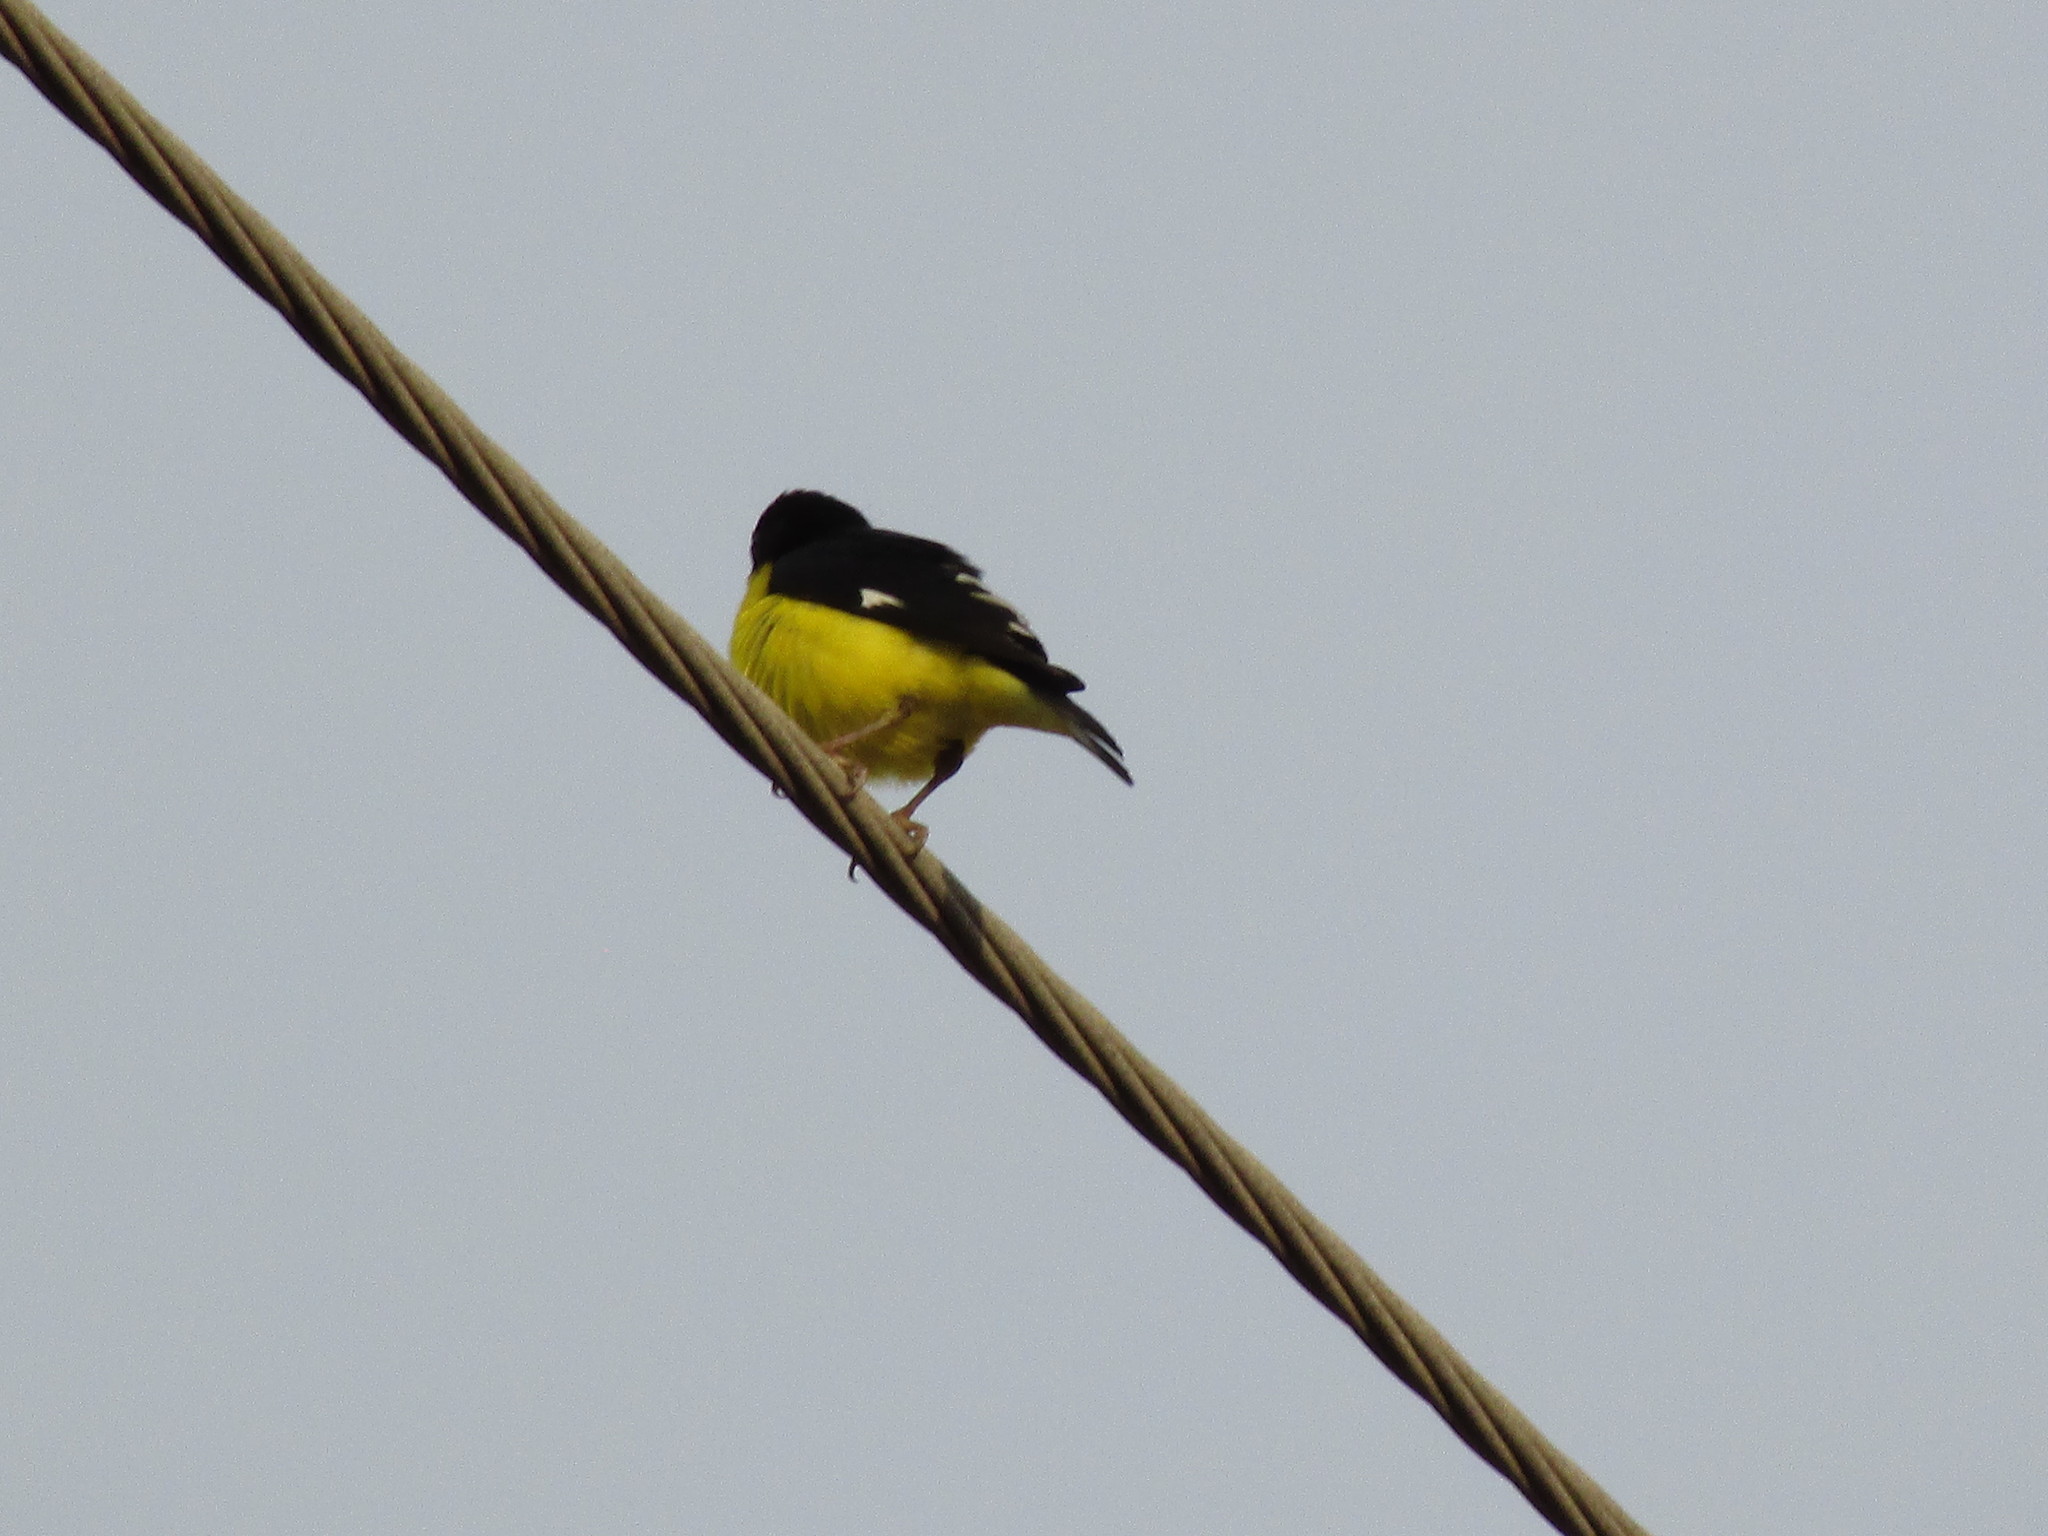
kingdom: Animalia
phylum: Chordata
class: Aves
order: Passeriformes
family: Fringillidae
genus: Spinus
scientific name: Spinus psaltria
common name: Lesser goldfinch
